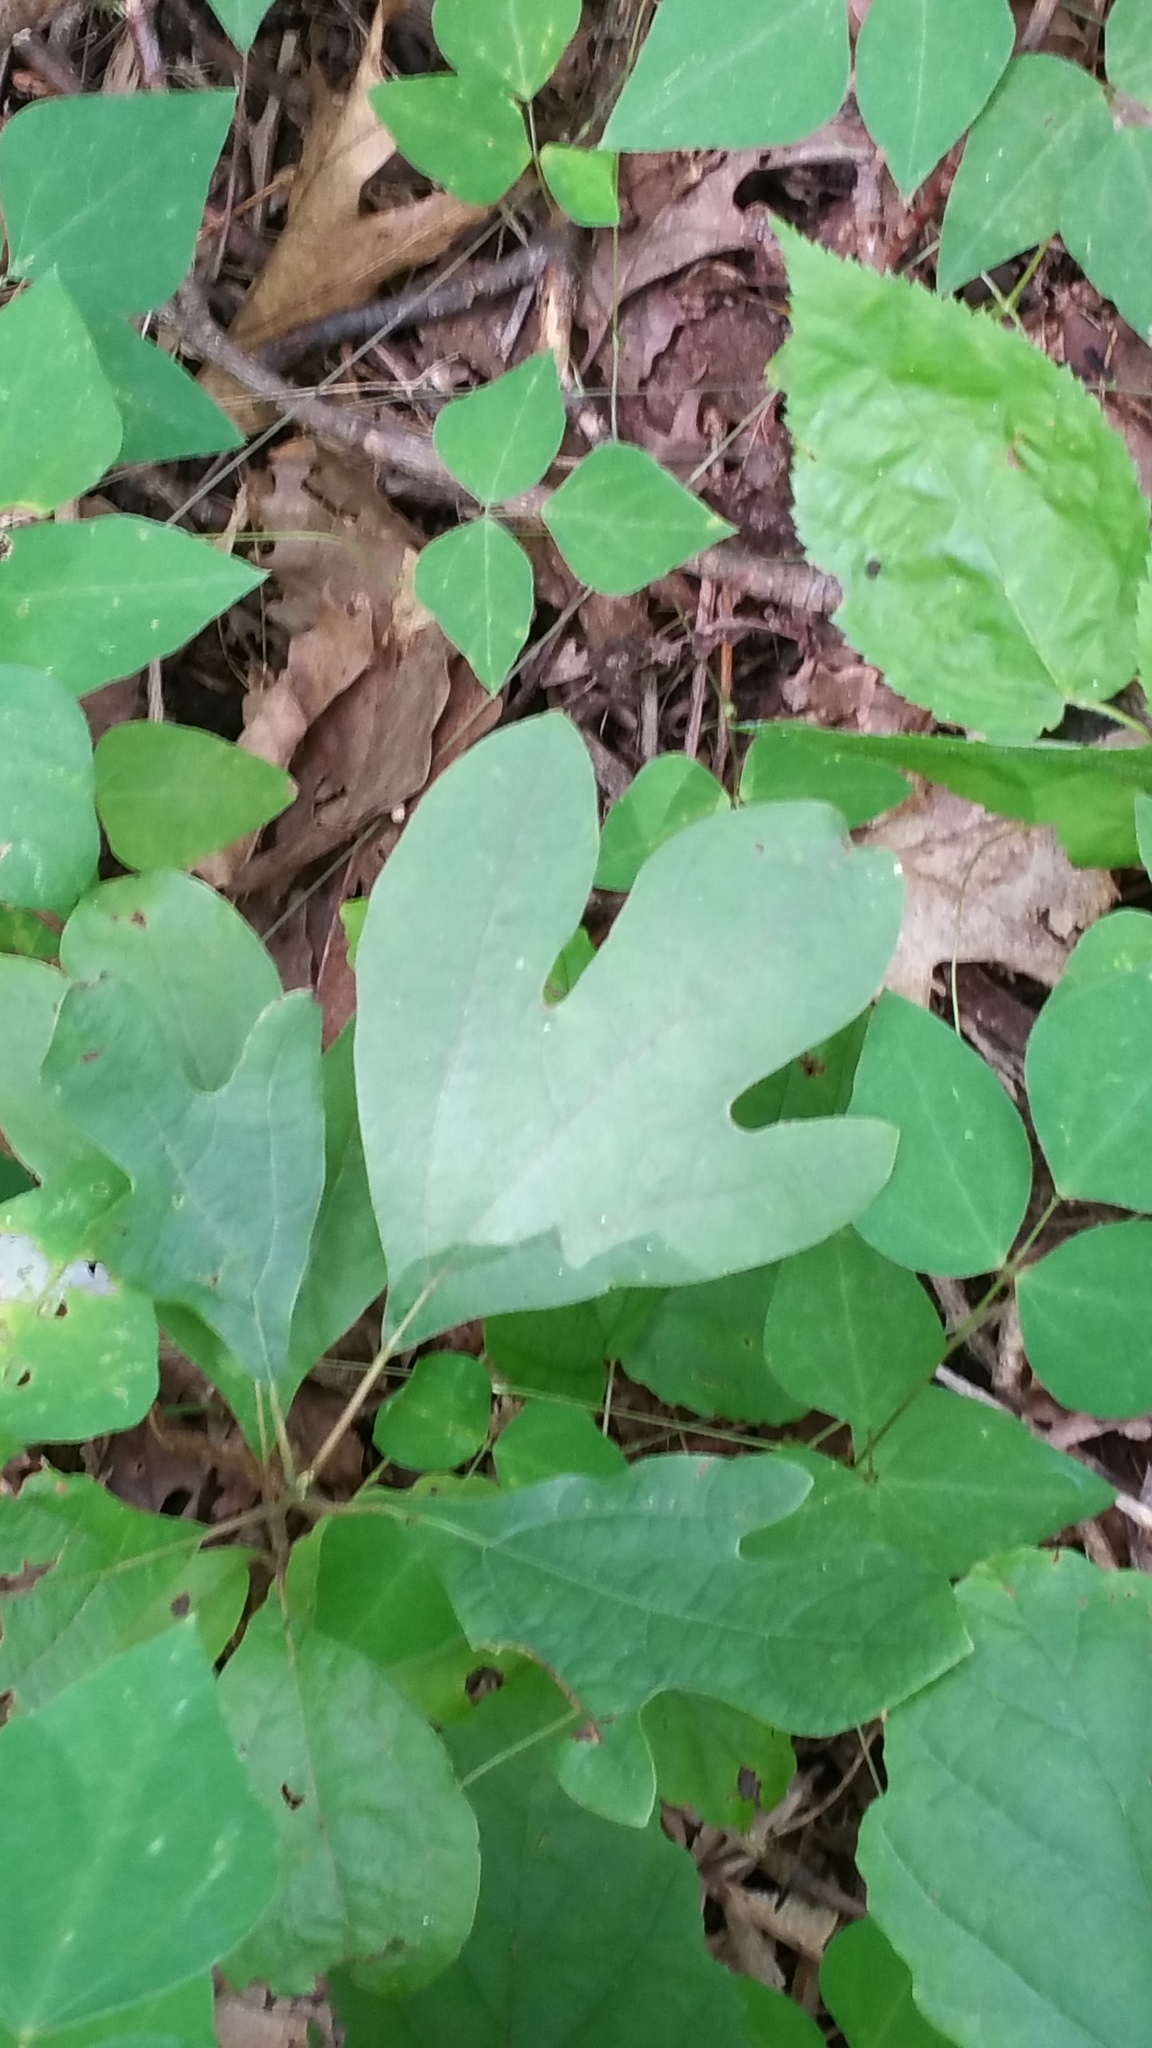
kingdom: Plantae
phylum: Tracheophyta
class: Magnoliopsida
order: Laurales
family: Lauraceae
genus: Sassafras
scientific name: Sassafras albidum
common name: Sassafras
